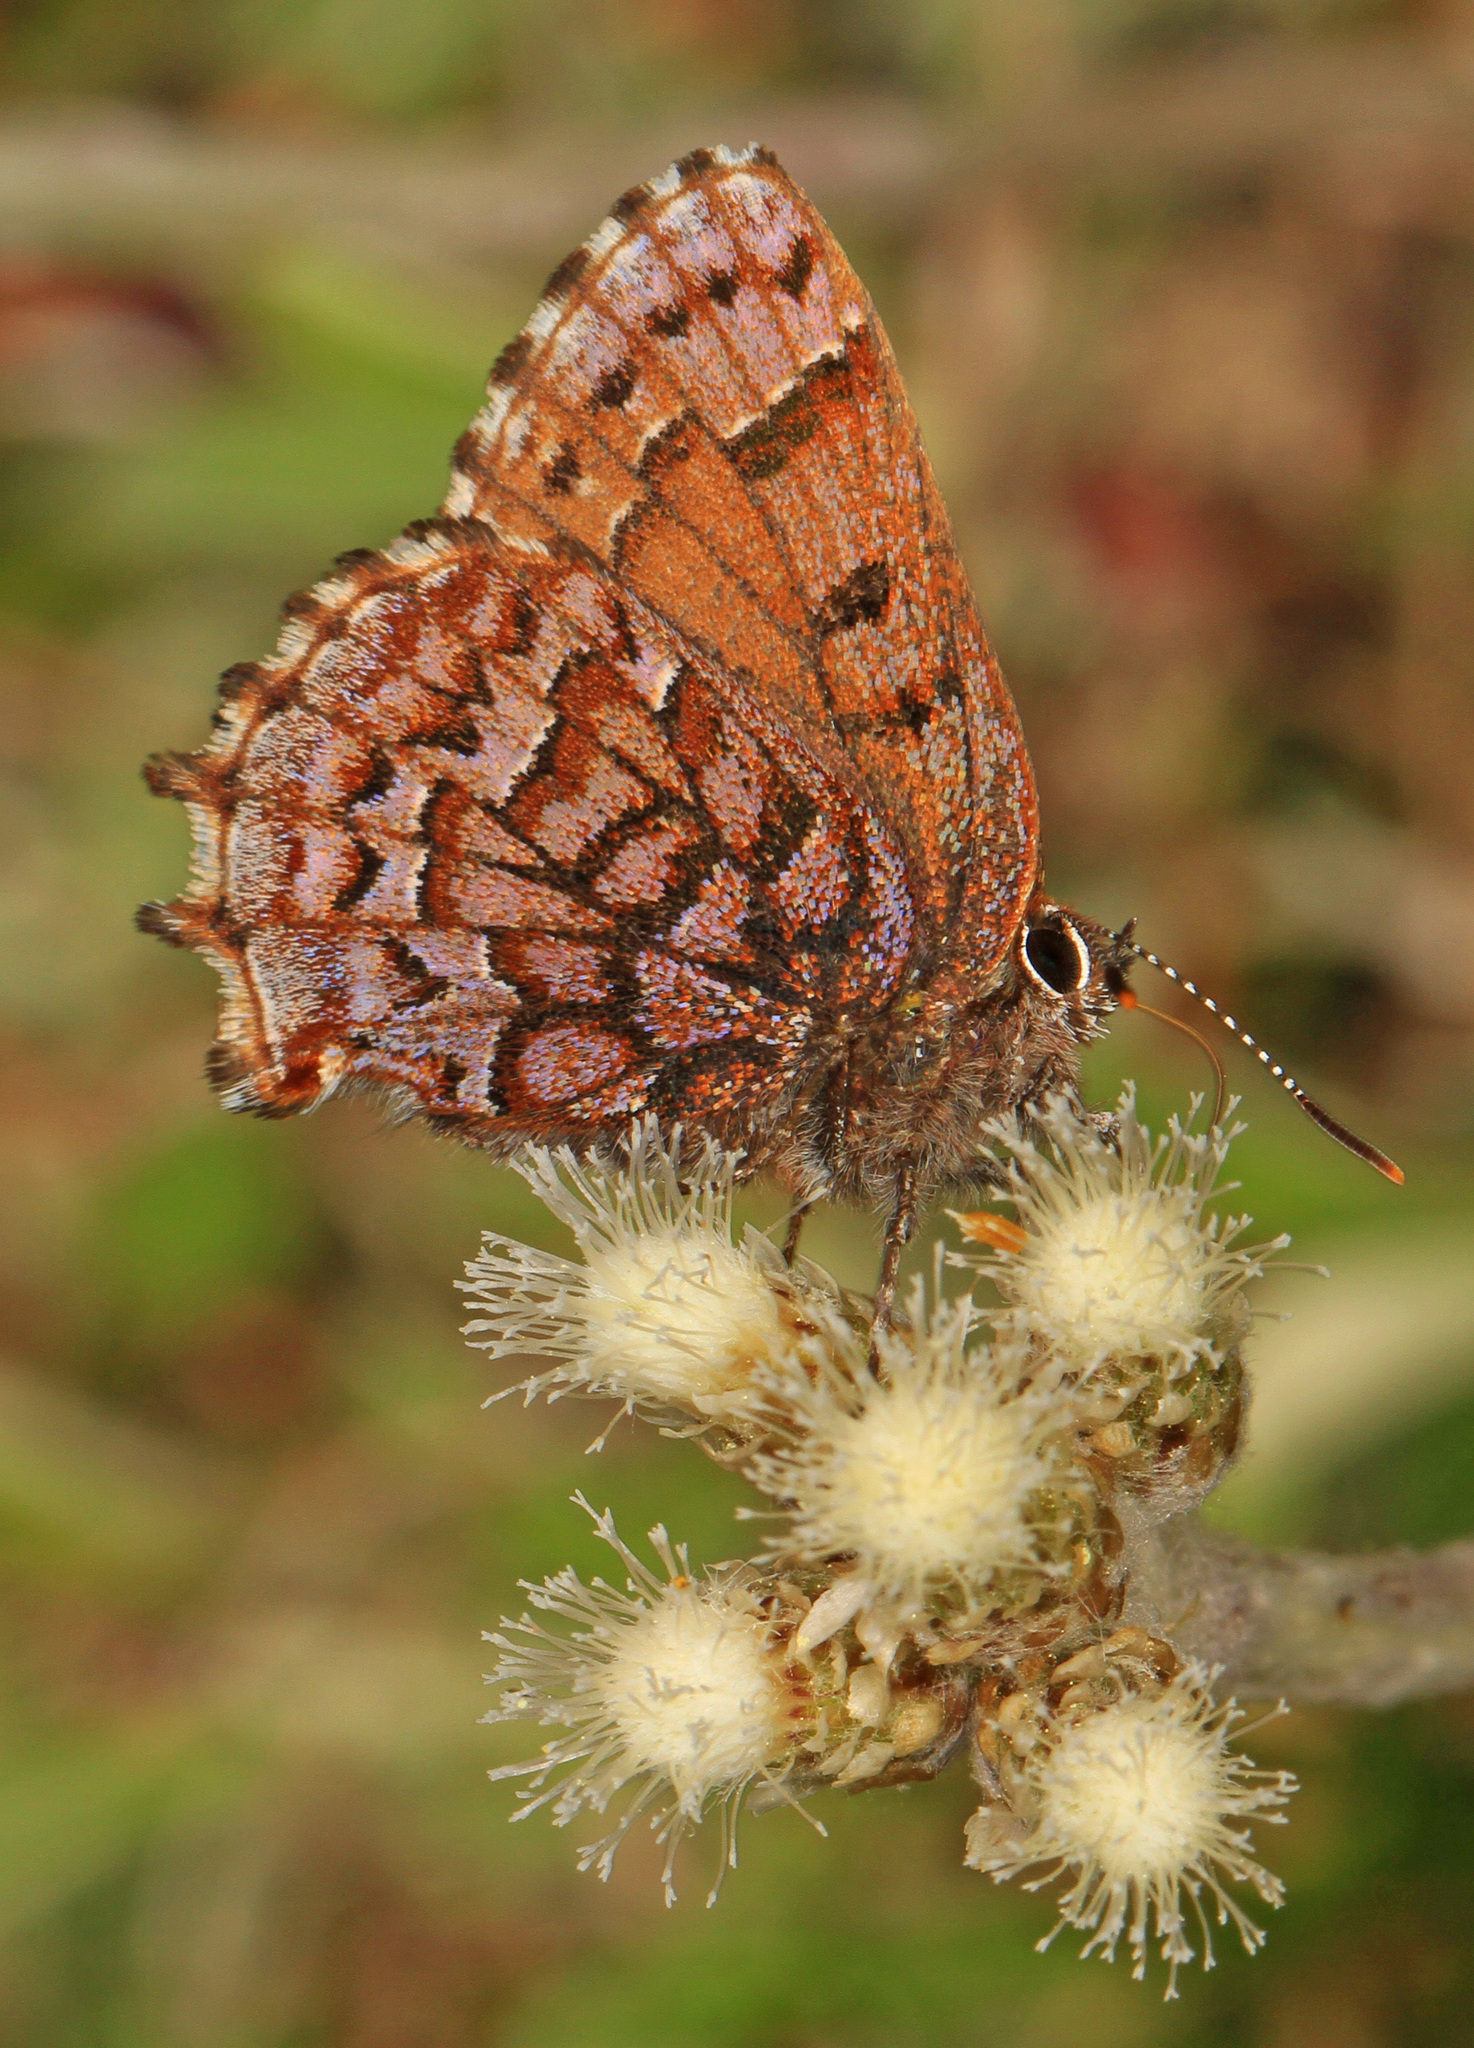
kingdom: Animalia
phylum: Arthropoda
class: Insecta
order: Lepidoptera
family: Lycaenidae
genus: Incisalia
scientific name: Incisalia niphon
